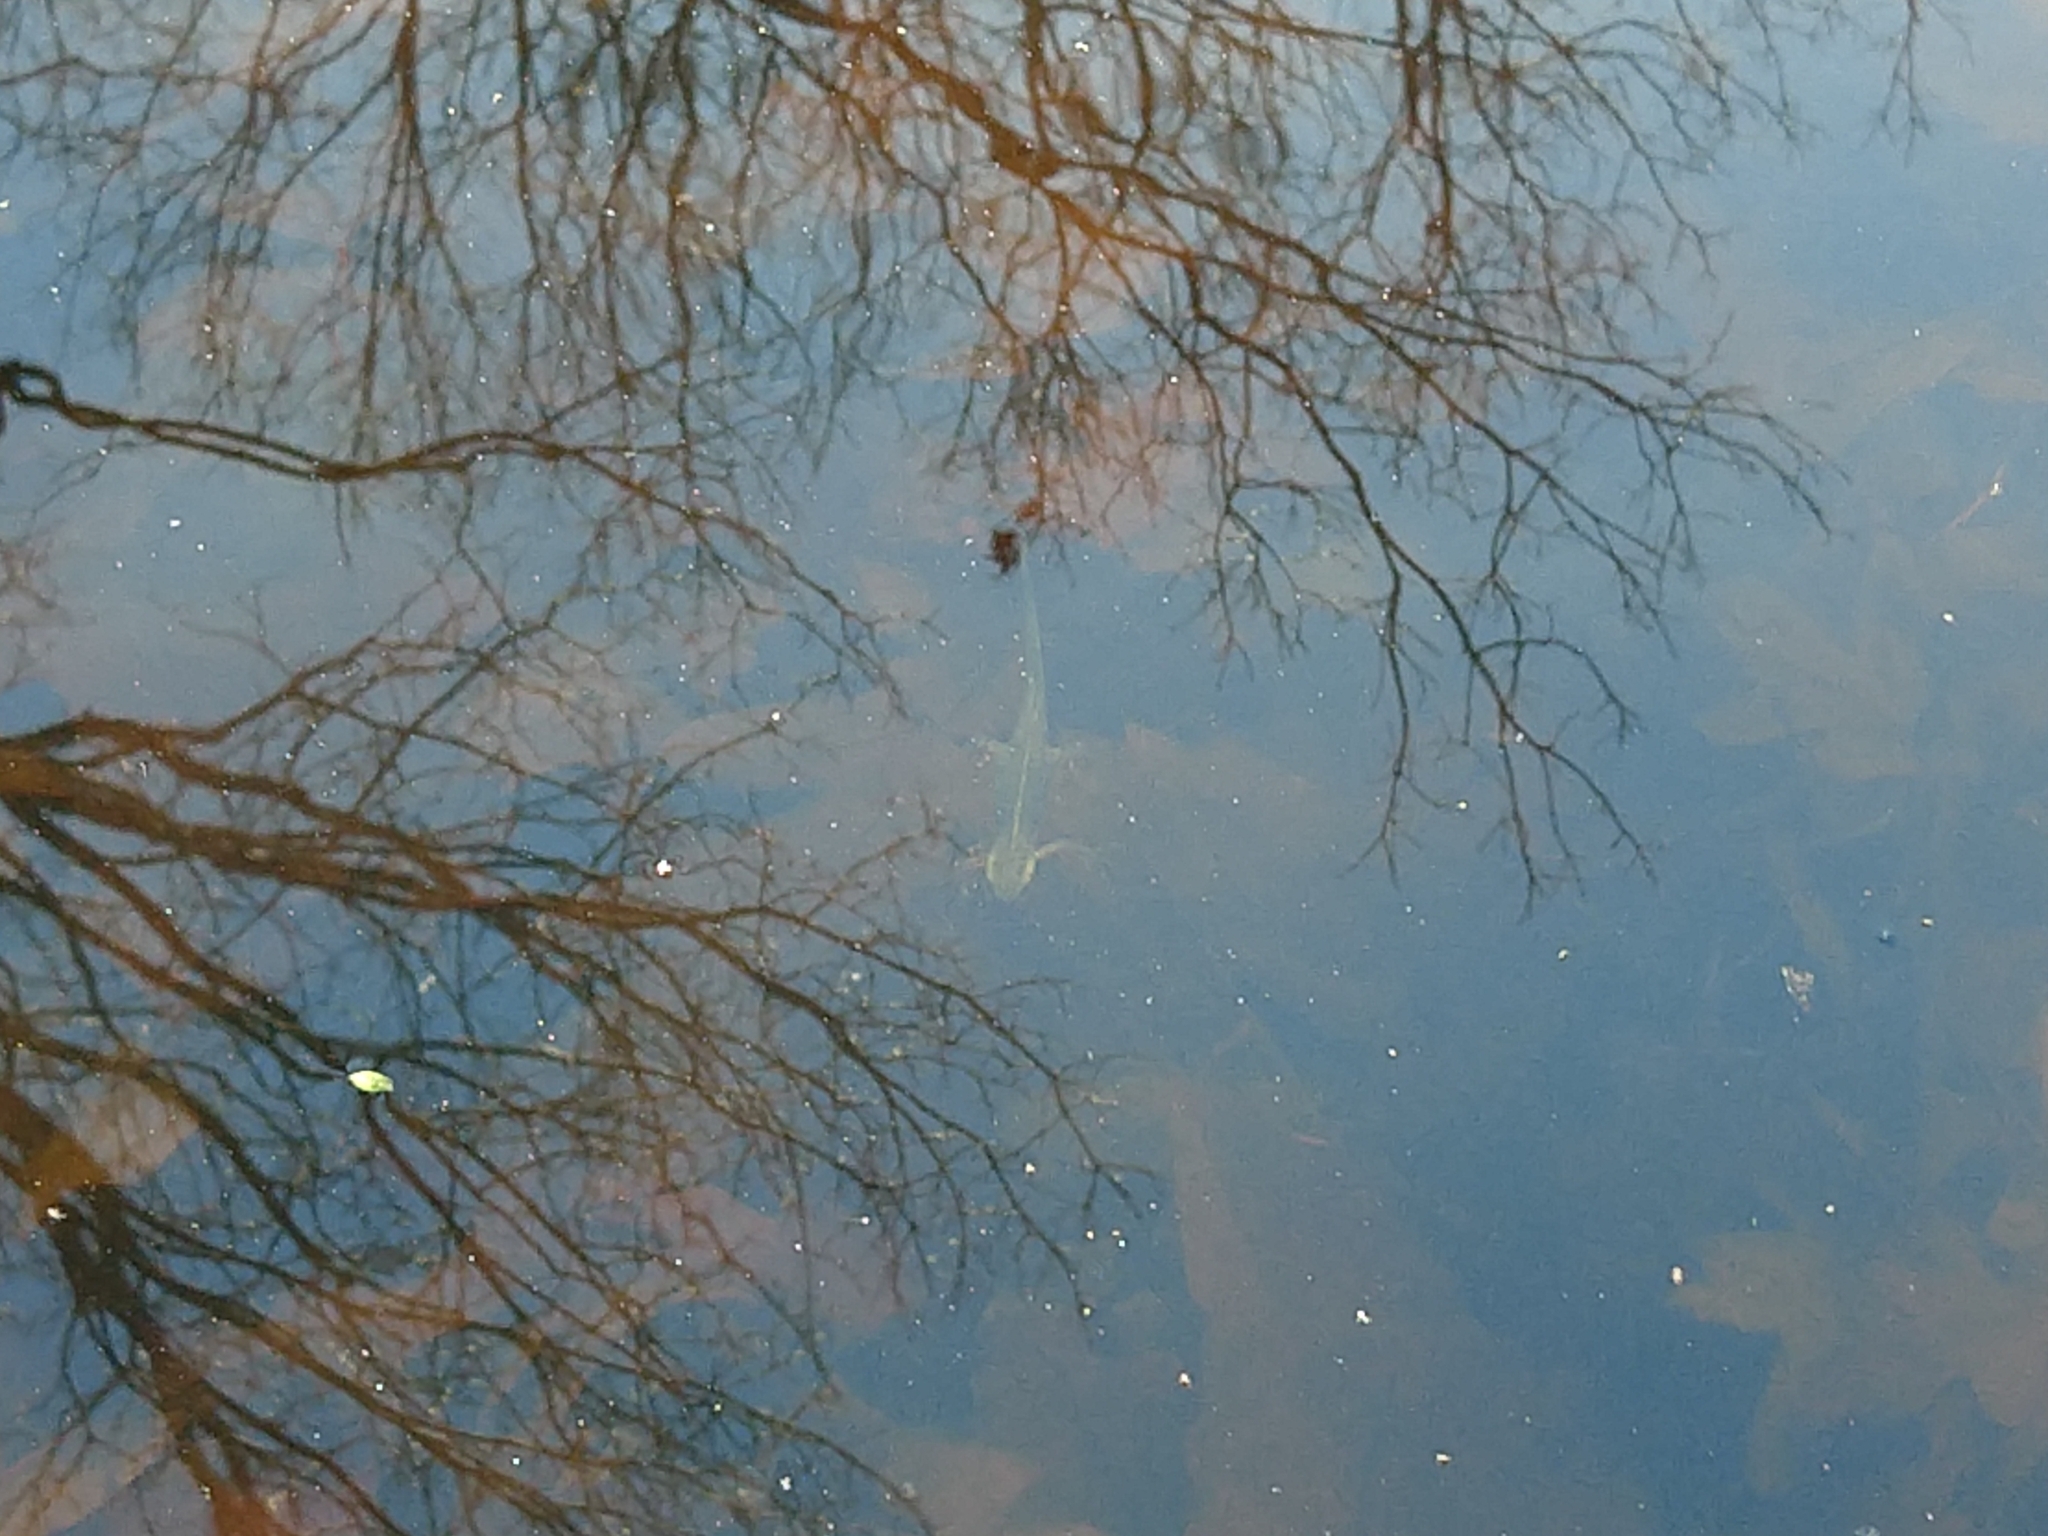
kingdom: Animalia
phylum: Chordata
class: Amphibia
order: Caudata
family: Salamandridae
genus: Notophthalmus
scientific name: Notophthalmus viridescens
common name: Eastern newt
